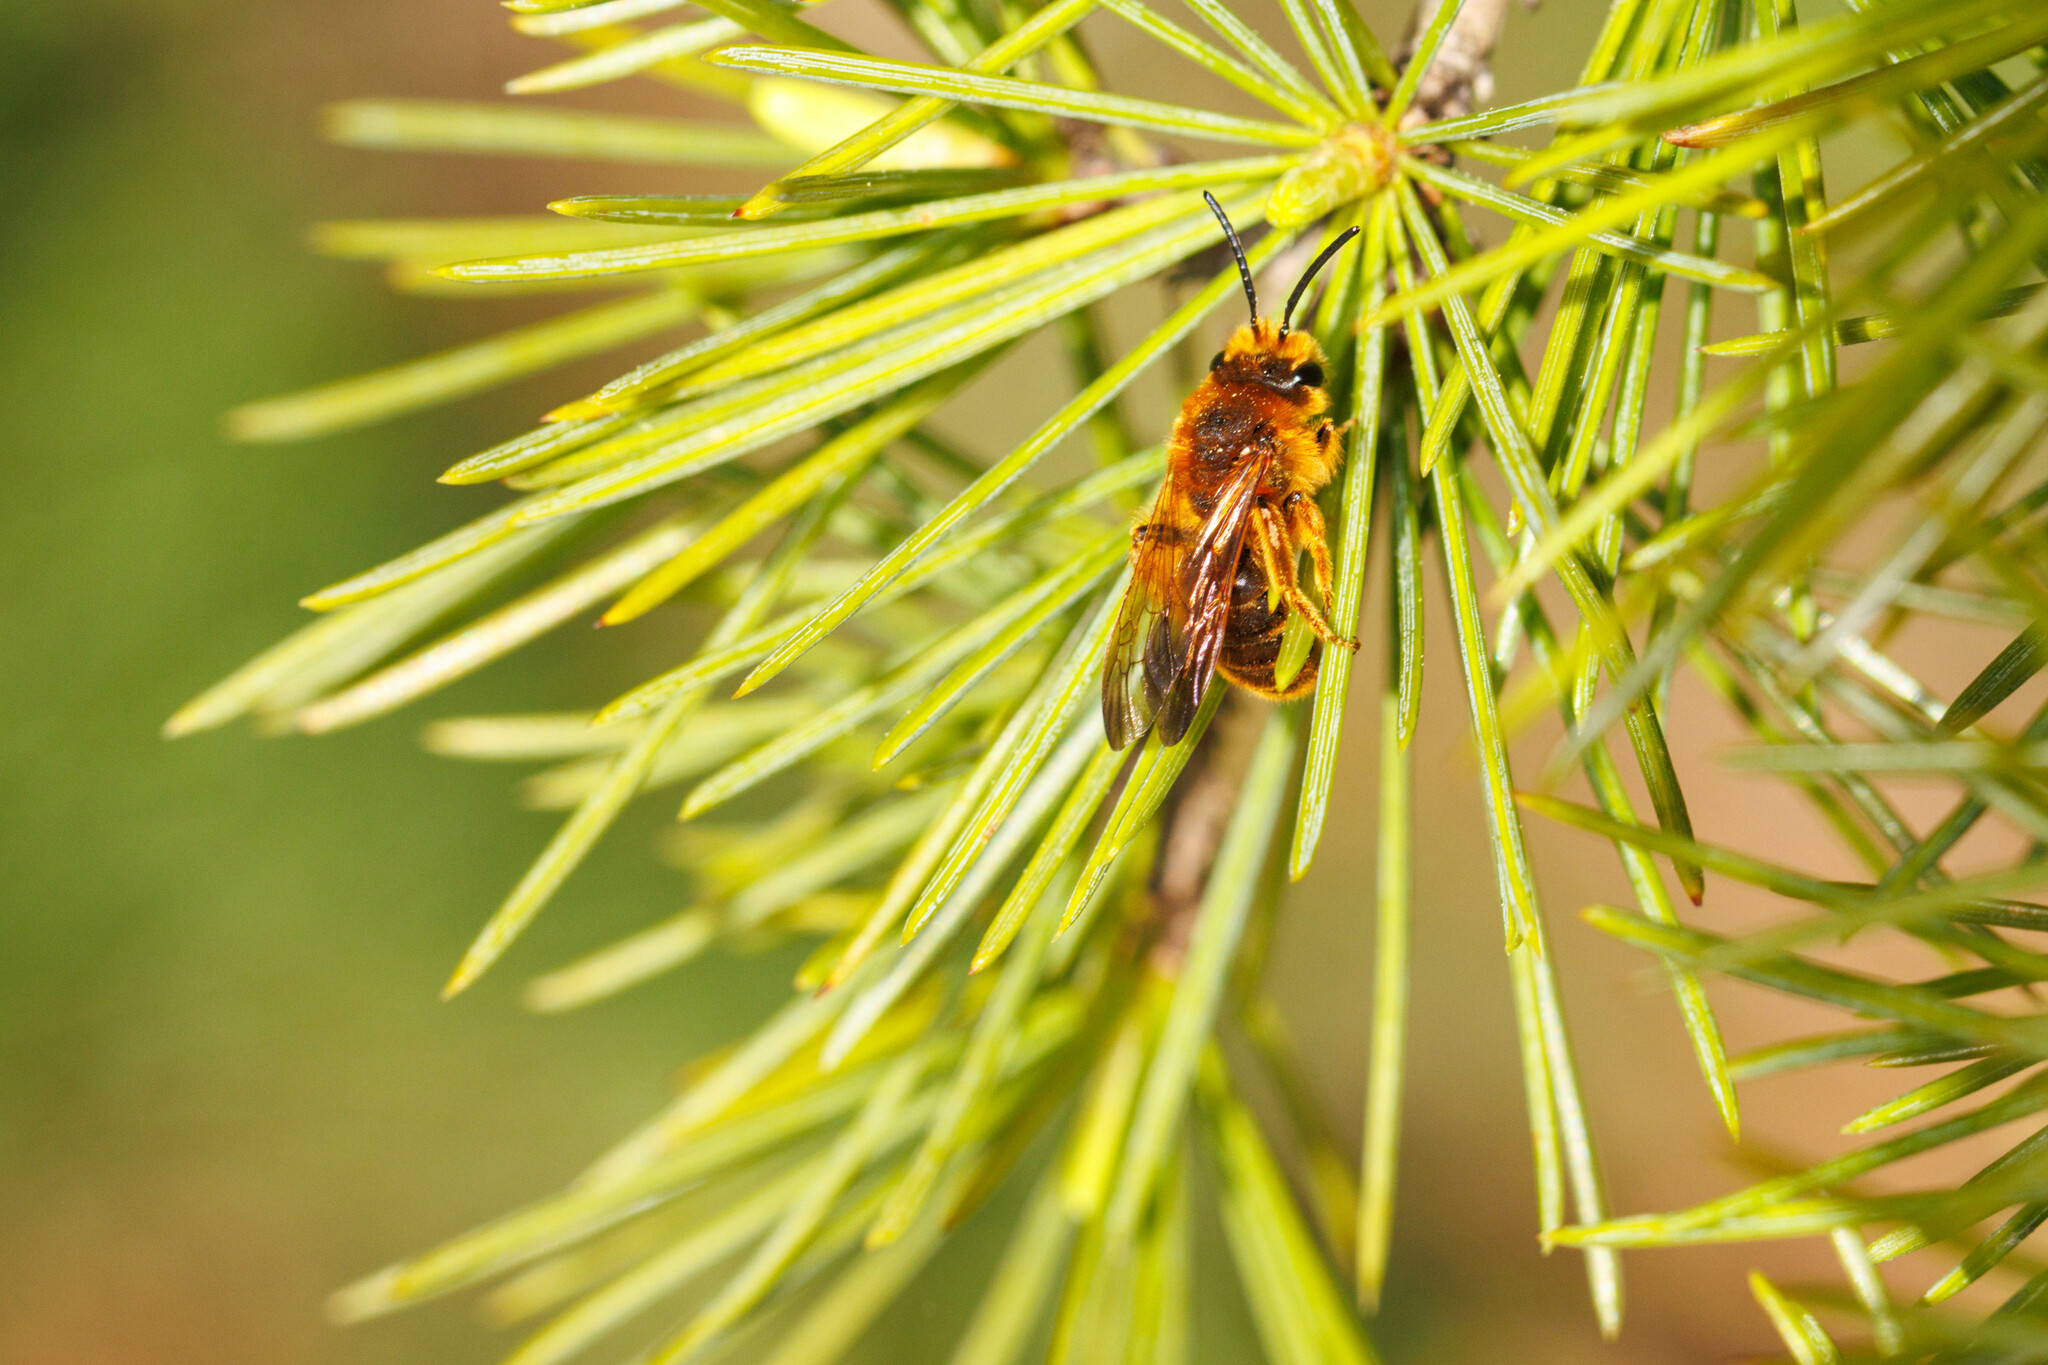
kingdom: Animalia
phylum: Arthropoda
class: Insecta
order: Hymenoptera
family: Andrenidae
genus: Andrena
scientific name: Andrena prunorum
